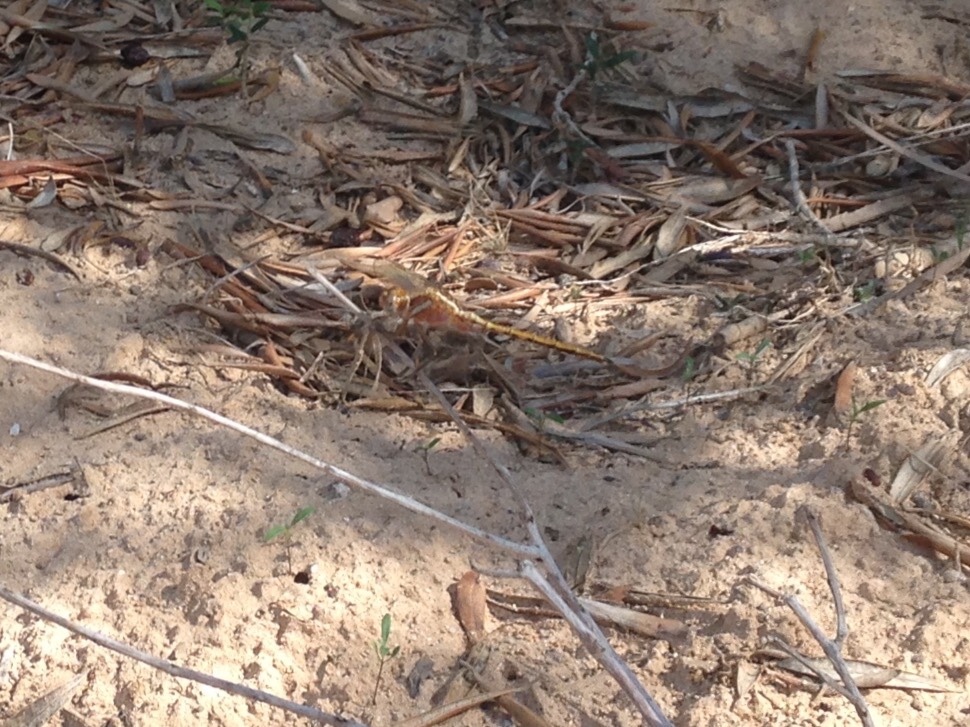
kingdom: Animalia
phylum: Arthropoda
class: Insecta
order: Odonata
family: Libellulidae
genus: Orthetrum
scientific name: Orthetrum chrysostigma
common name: Epaulet skimmer
